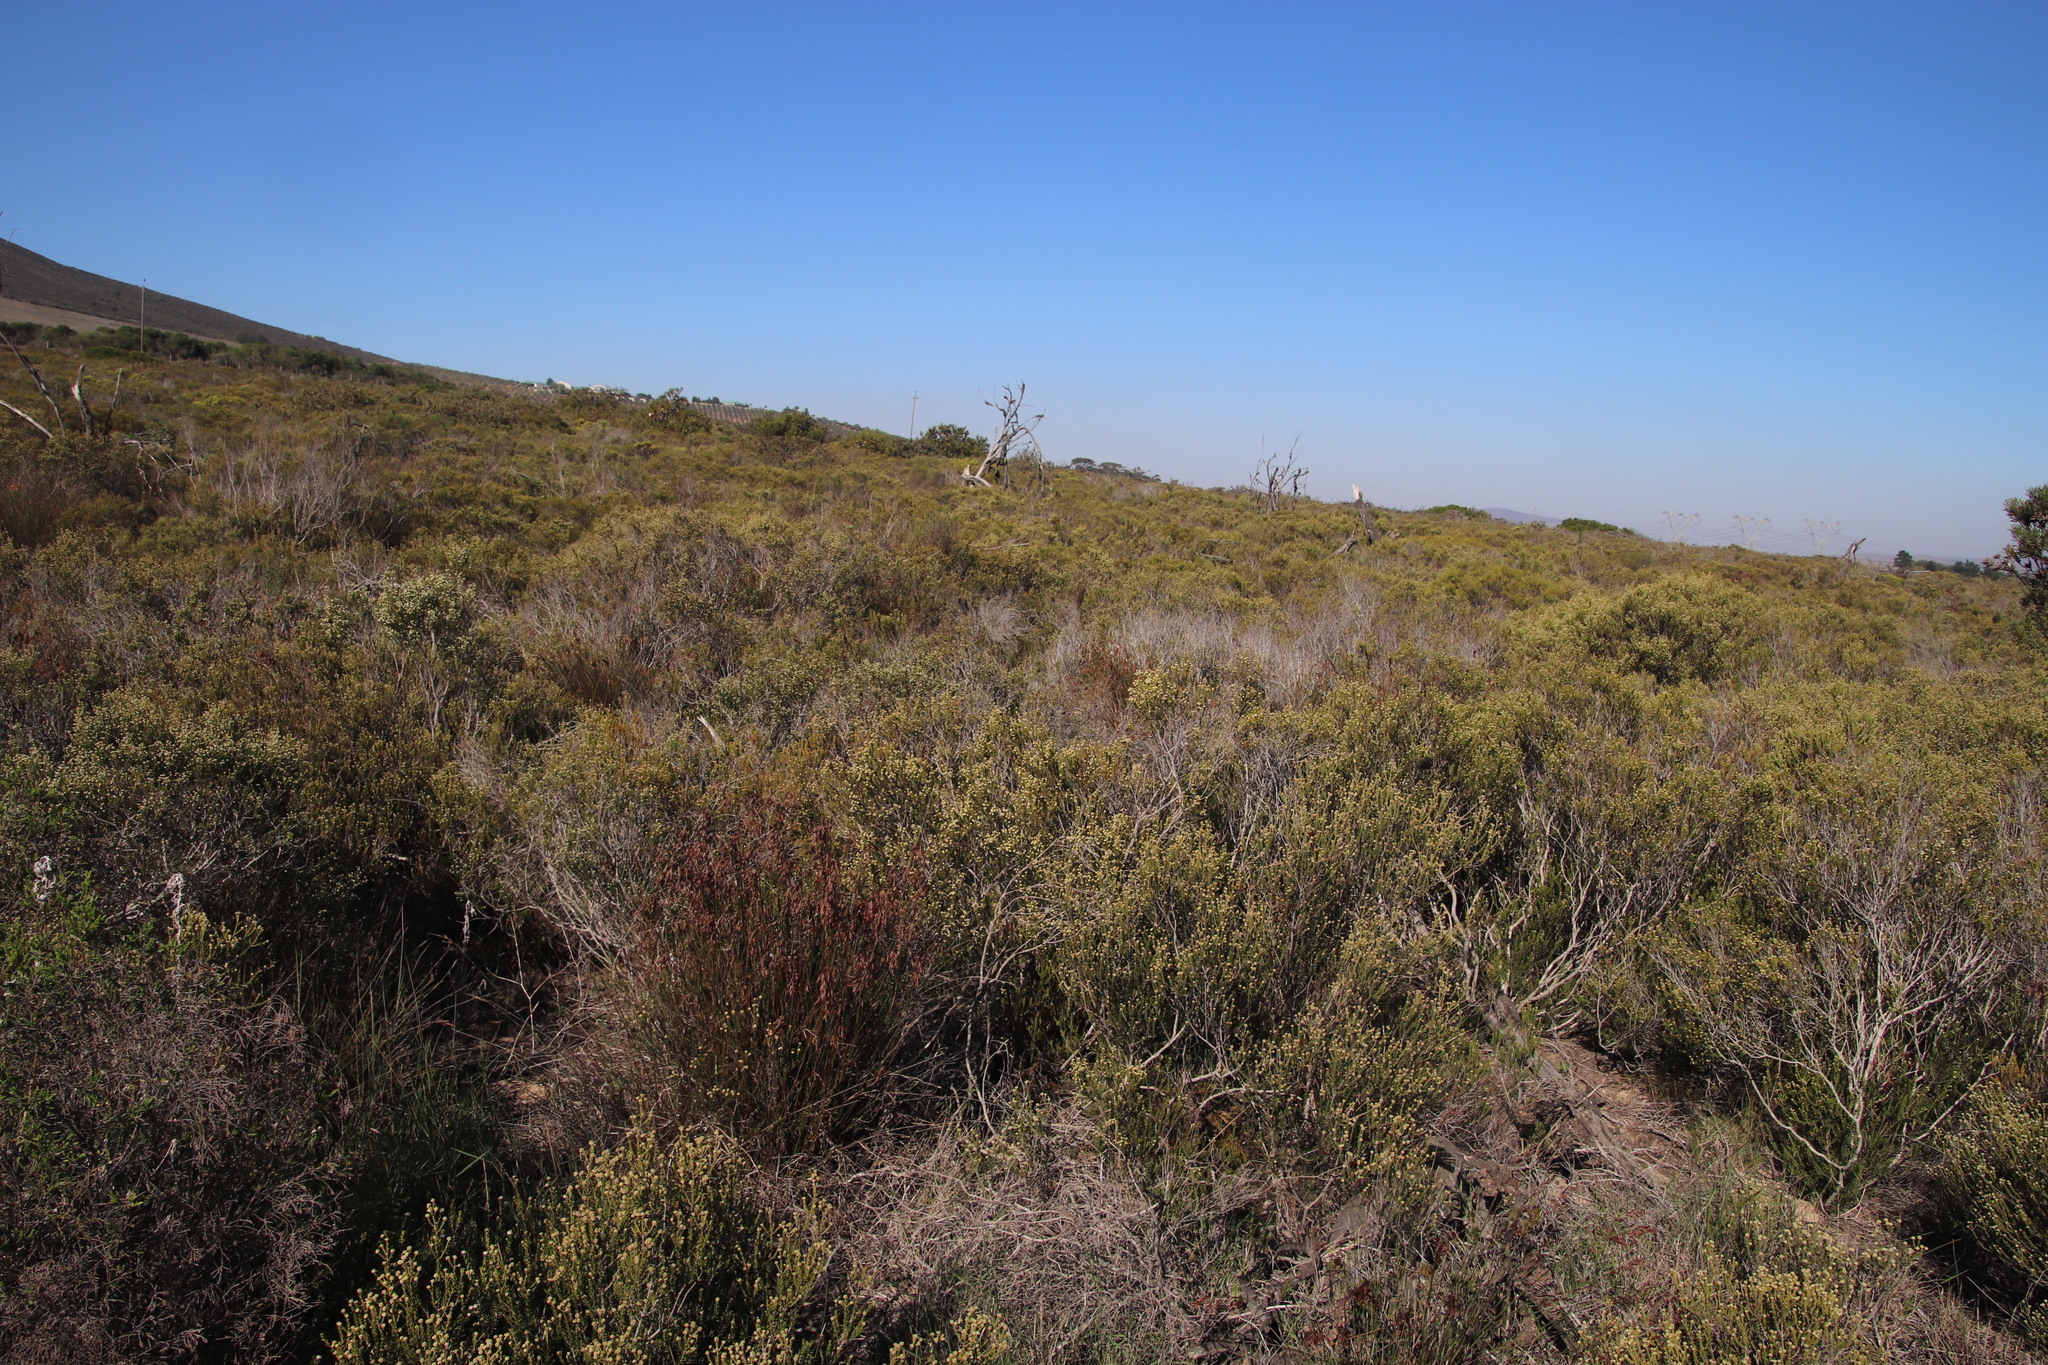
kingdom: Plantae
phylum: Tracheophyta
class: Magnoliopsida
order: Sapindales
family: Anacardiaceae
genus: Searsia
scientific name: Searsia dissecta
